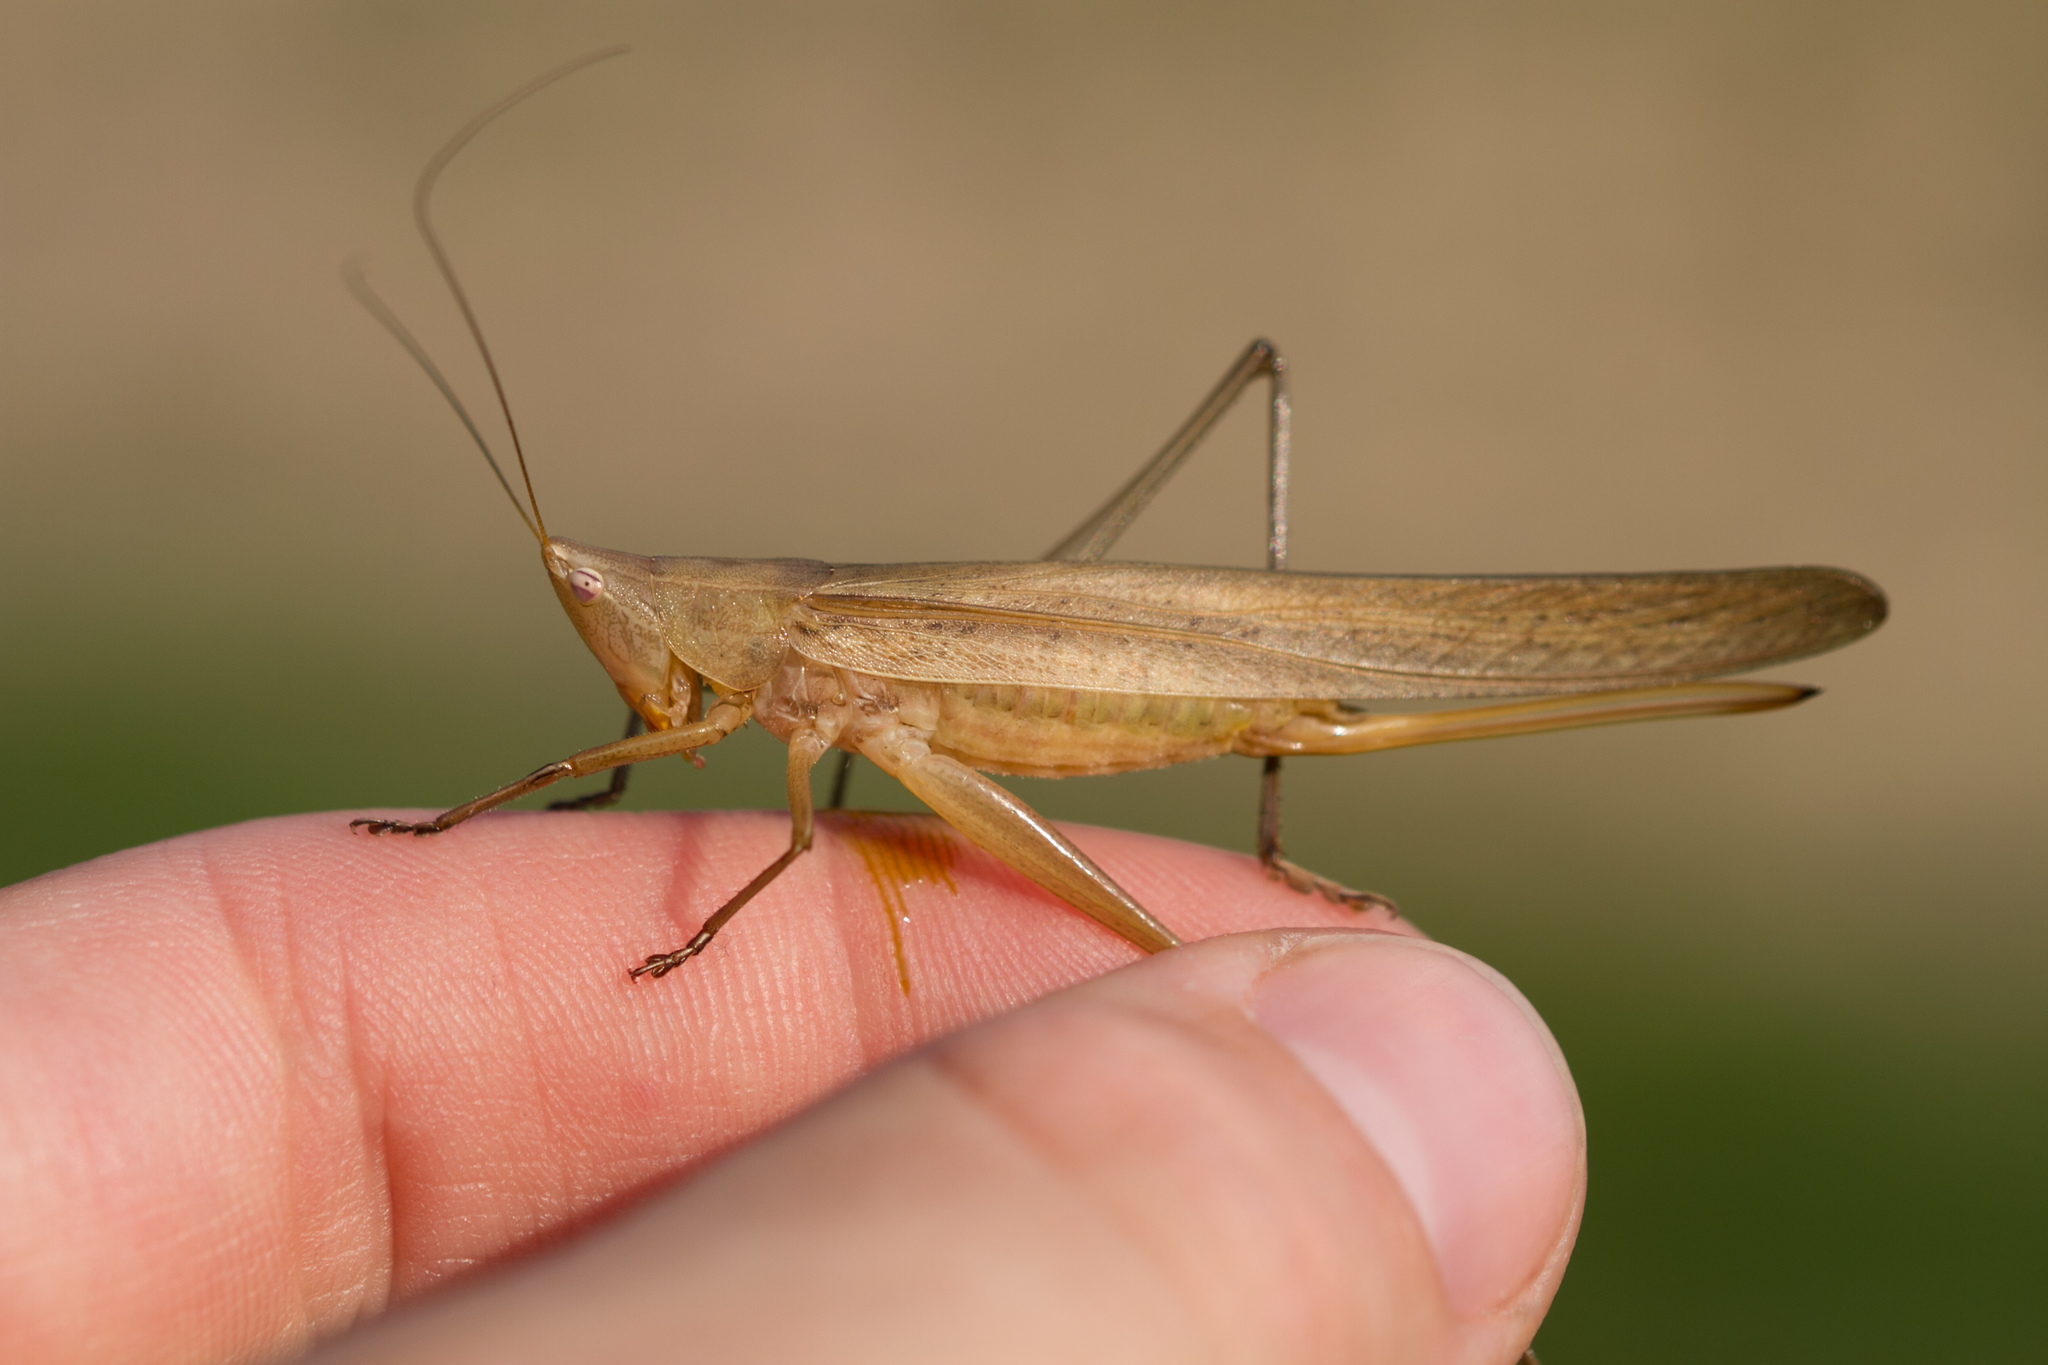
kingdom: Animalia
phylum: Arthropoda
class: Insecta
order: Orthoptera
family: Tettigoniidae
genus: Ruspolia
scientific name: Ruspolia nitidula
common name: Large conehead
